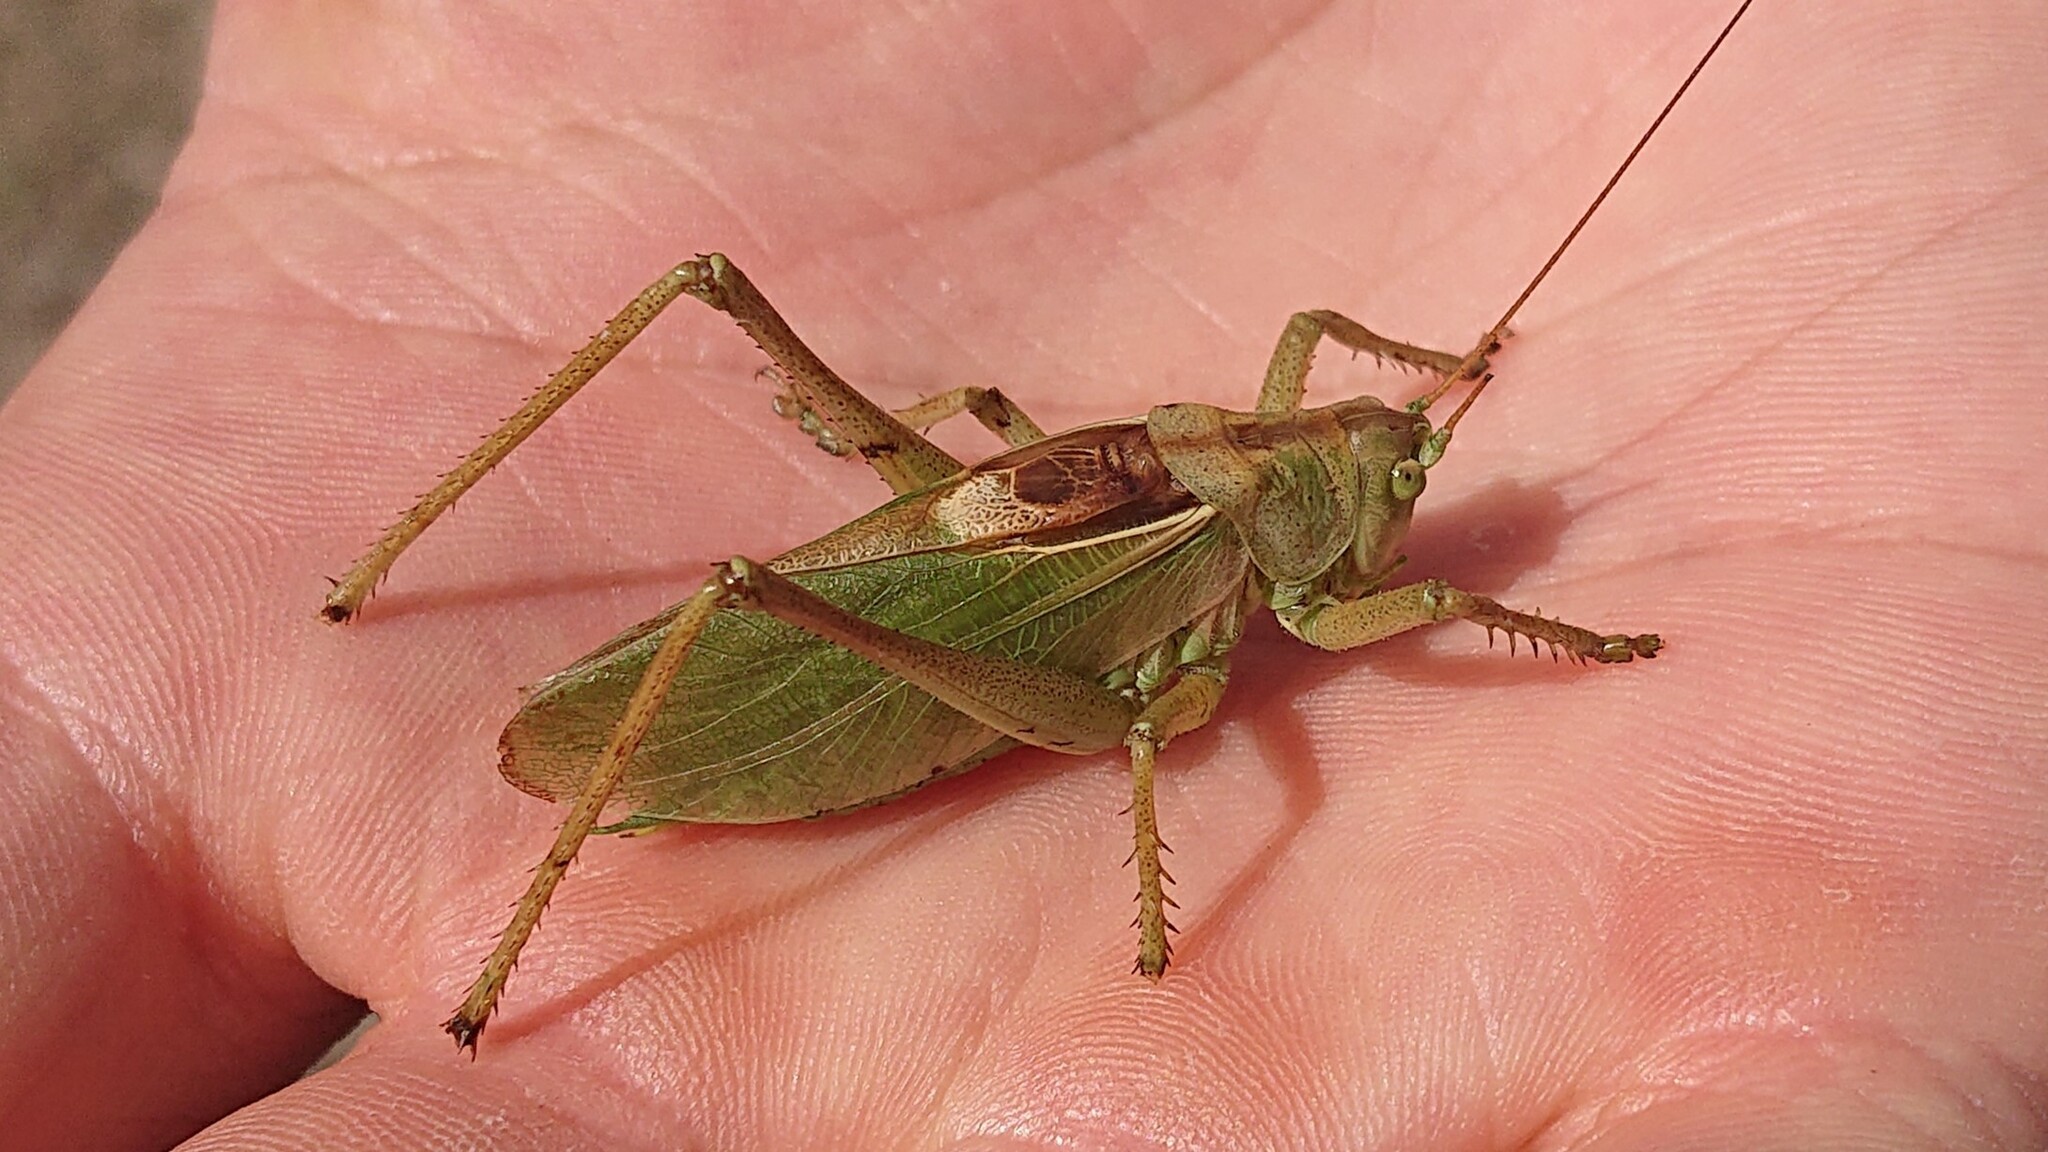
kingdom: Animalia
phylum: Arthropoda
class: Insecta
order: Orthoptera
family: Tettigoniidae
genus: Tettigonia
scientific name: Tettigonia cantans
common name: Upland green bush-cricket
